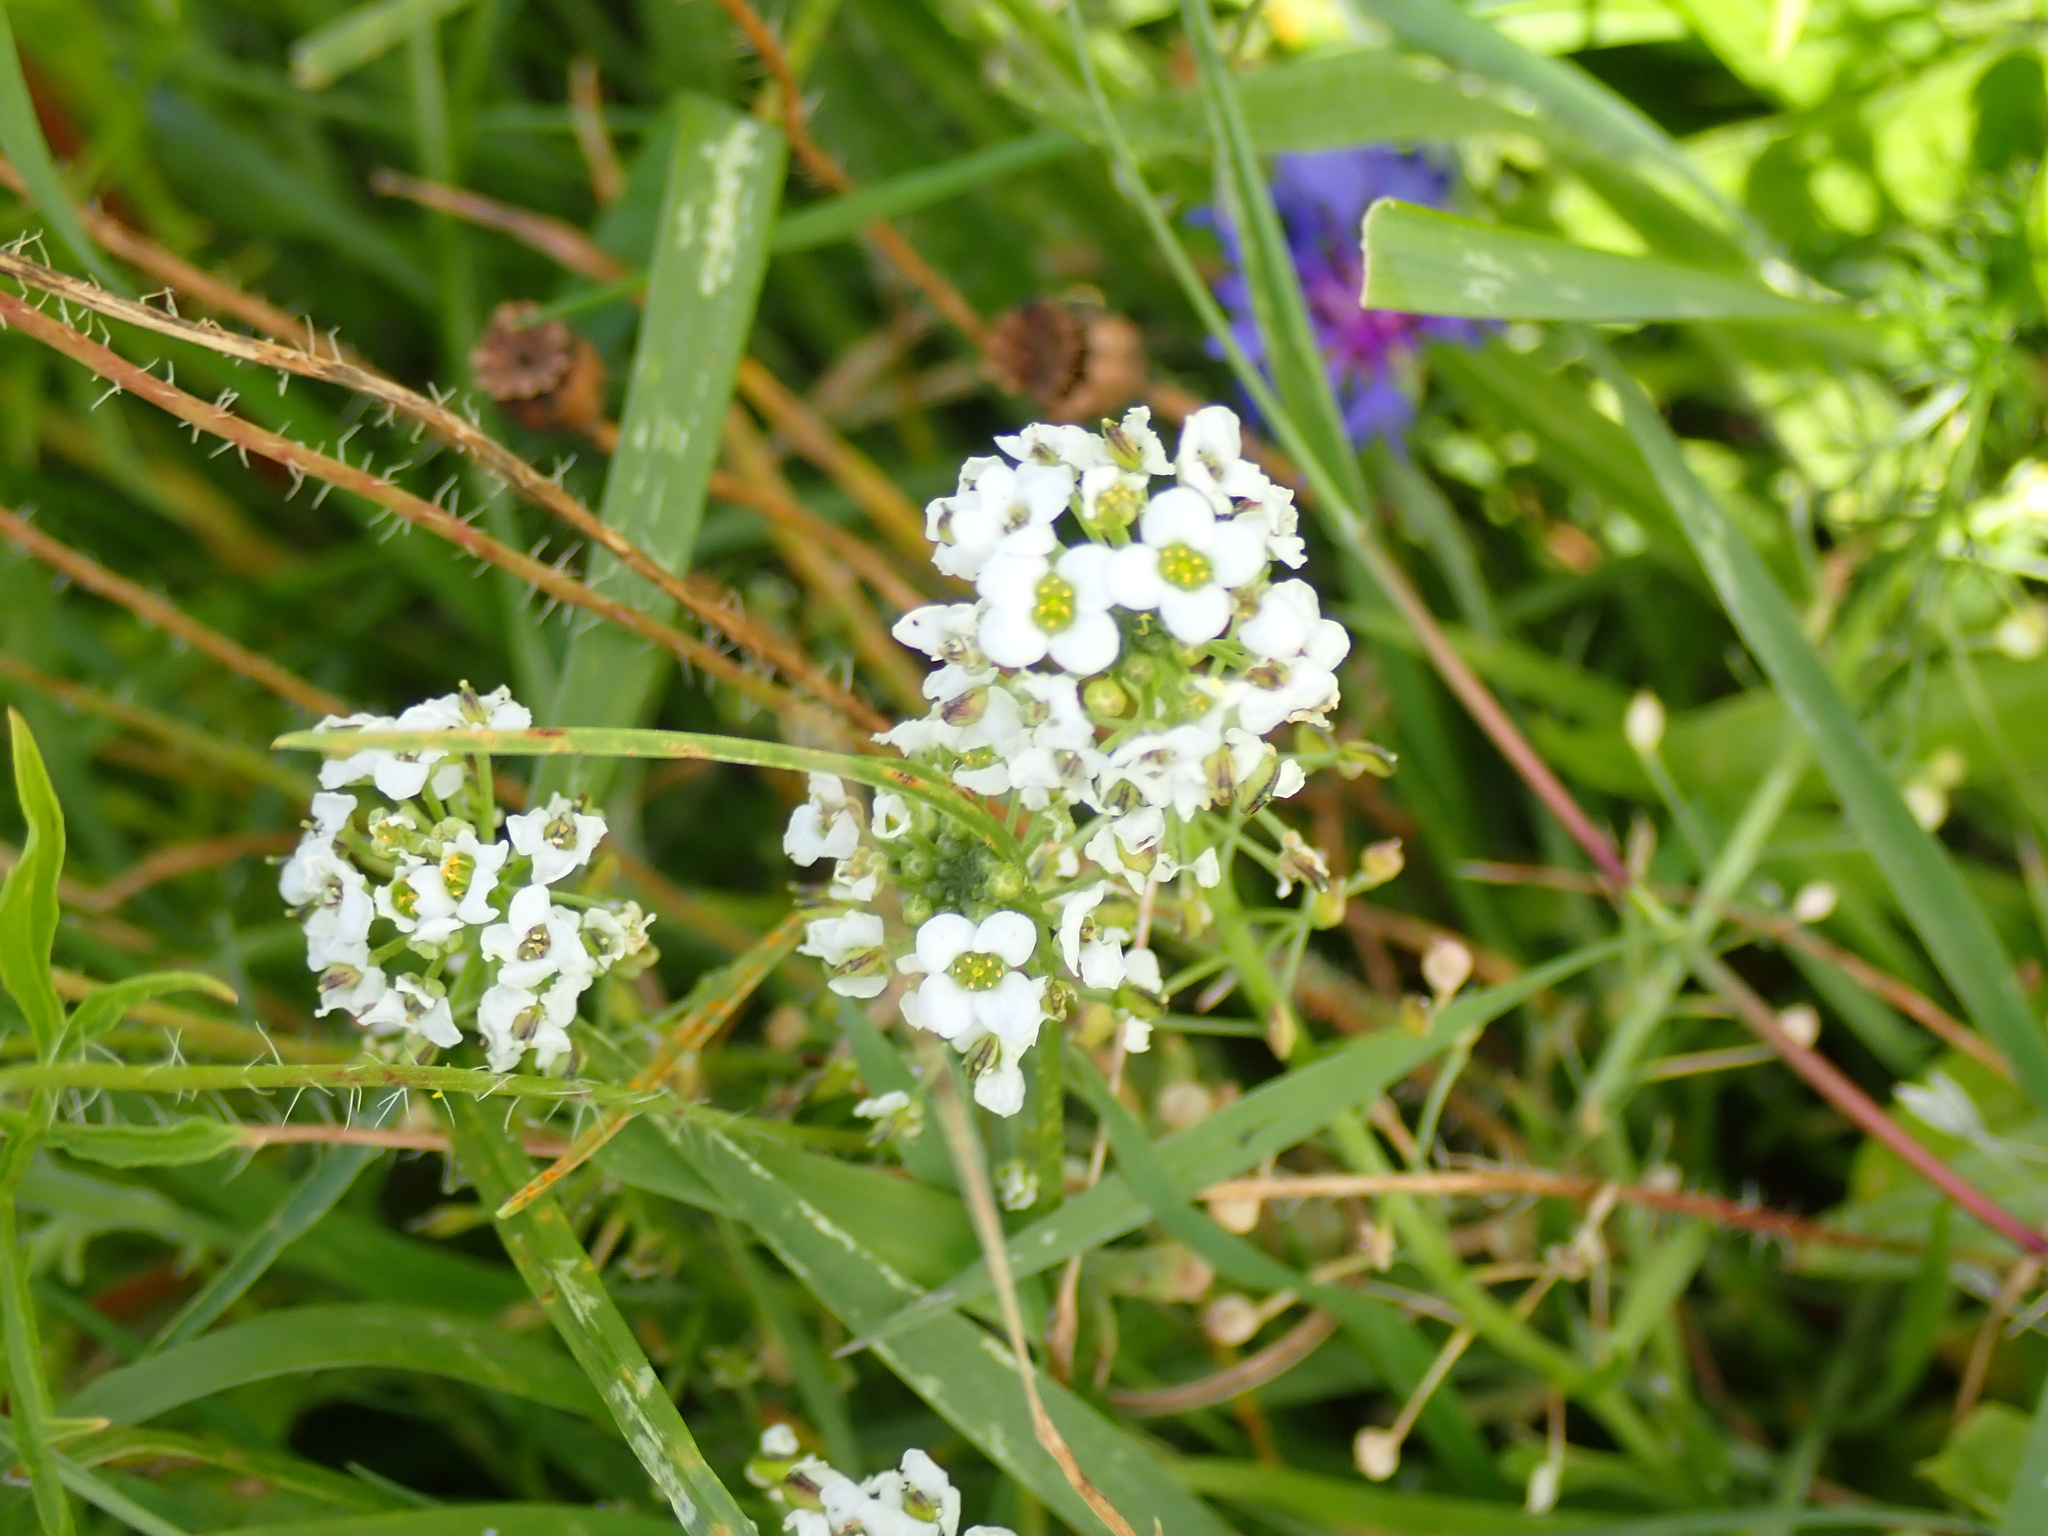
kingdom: Plantae
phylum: Tracheophyta
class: Magnoliopsida
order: Brassicales
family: Brassicaceae
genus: Lobularia
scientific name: Lobularia maritima
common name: Sweet alison
